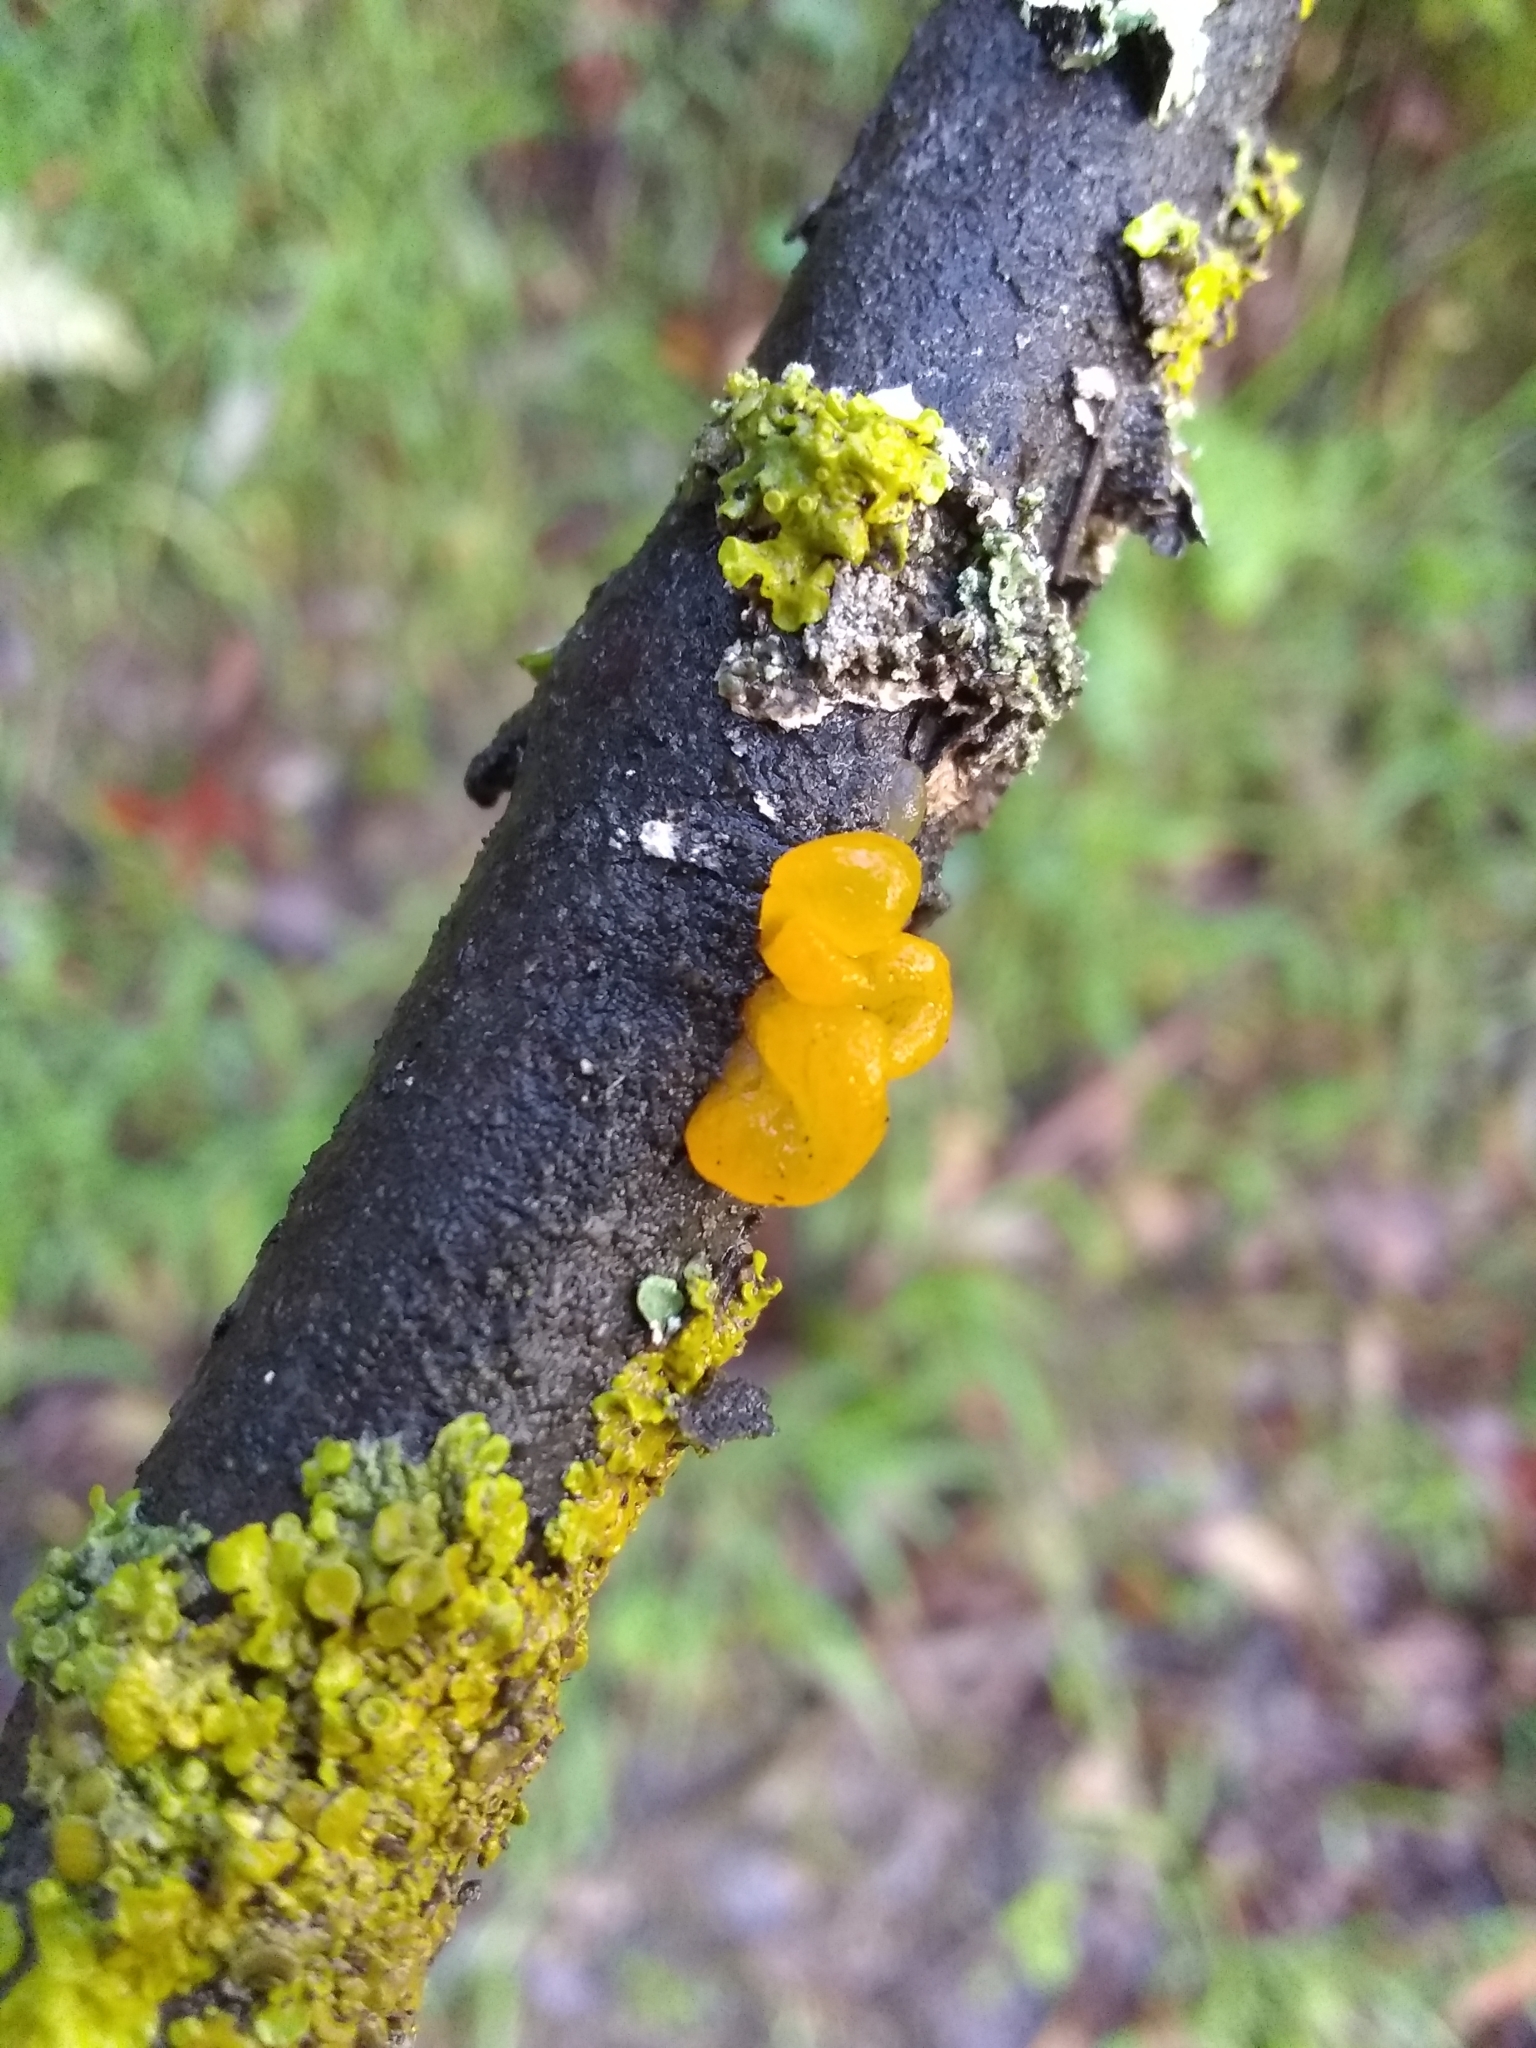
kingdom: Fungi
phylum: Basidiomycota
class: Tremellomycetes
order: Tremellales
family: Tremellaceae
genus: Tremella
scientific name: Tremella mesenterica
